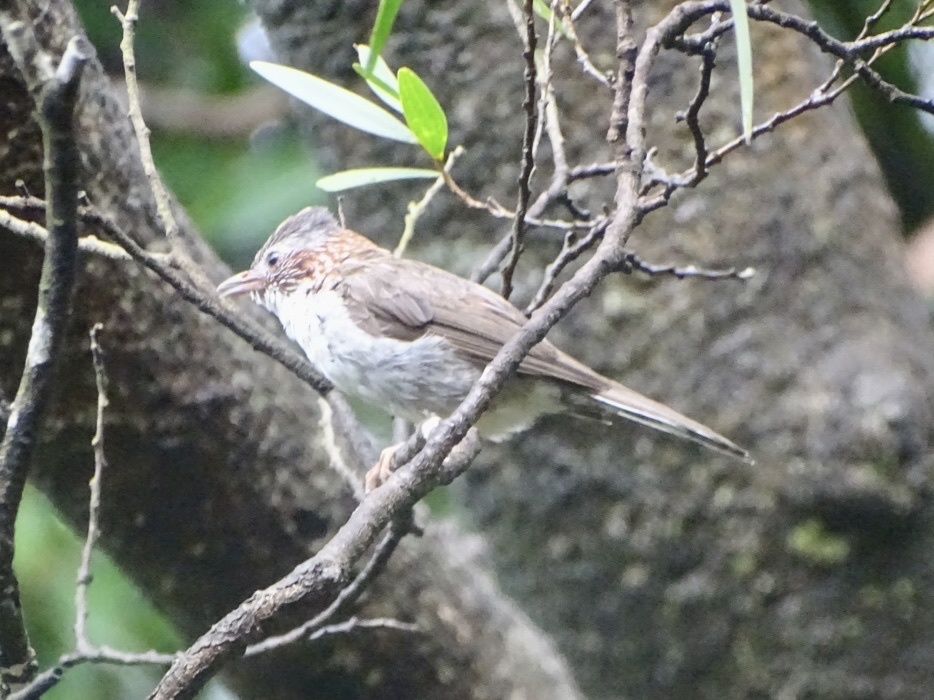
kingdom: Animalia
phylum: Chordata
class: Aves
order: Passeriformes
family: Zosteropidae
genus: Yuhina
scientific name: Yuhina torqueola
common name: Indochinese yuhina
